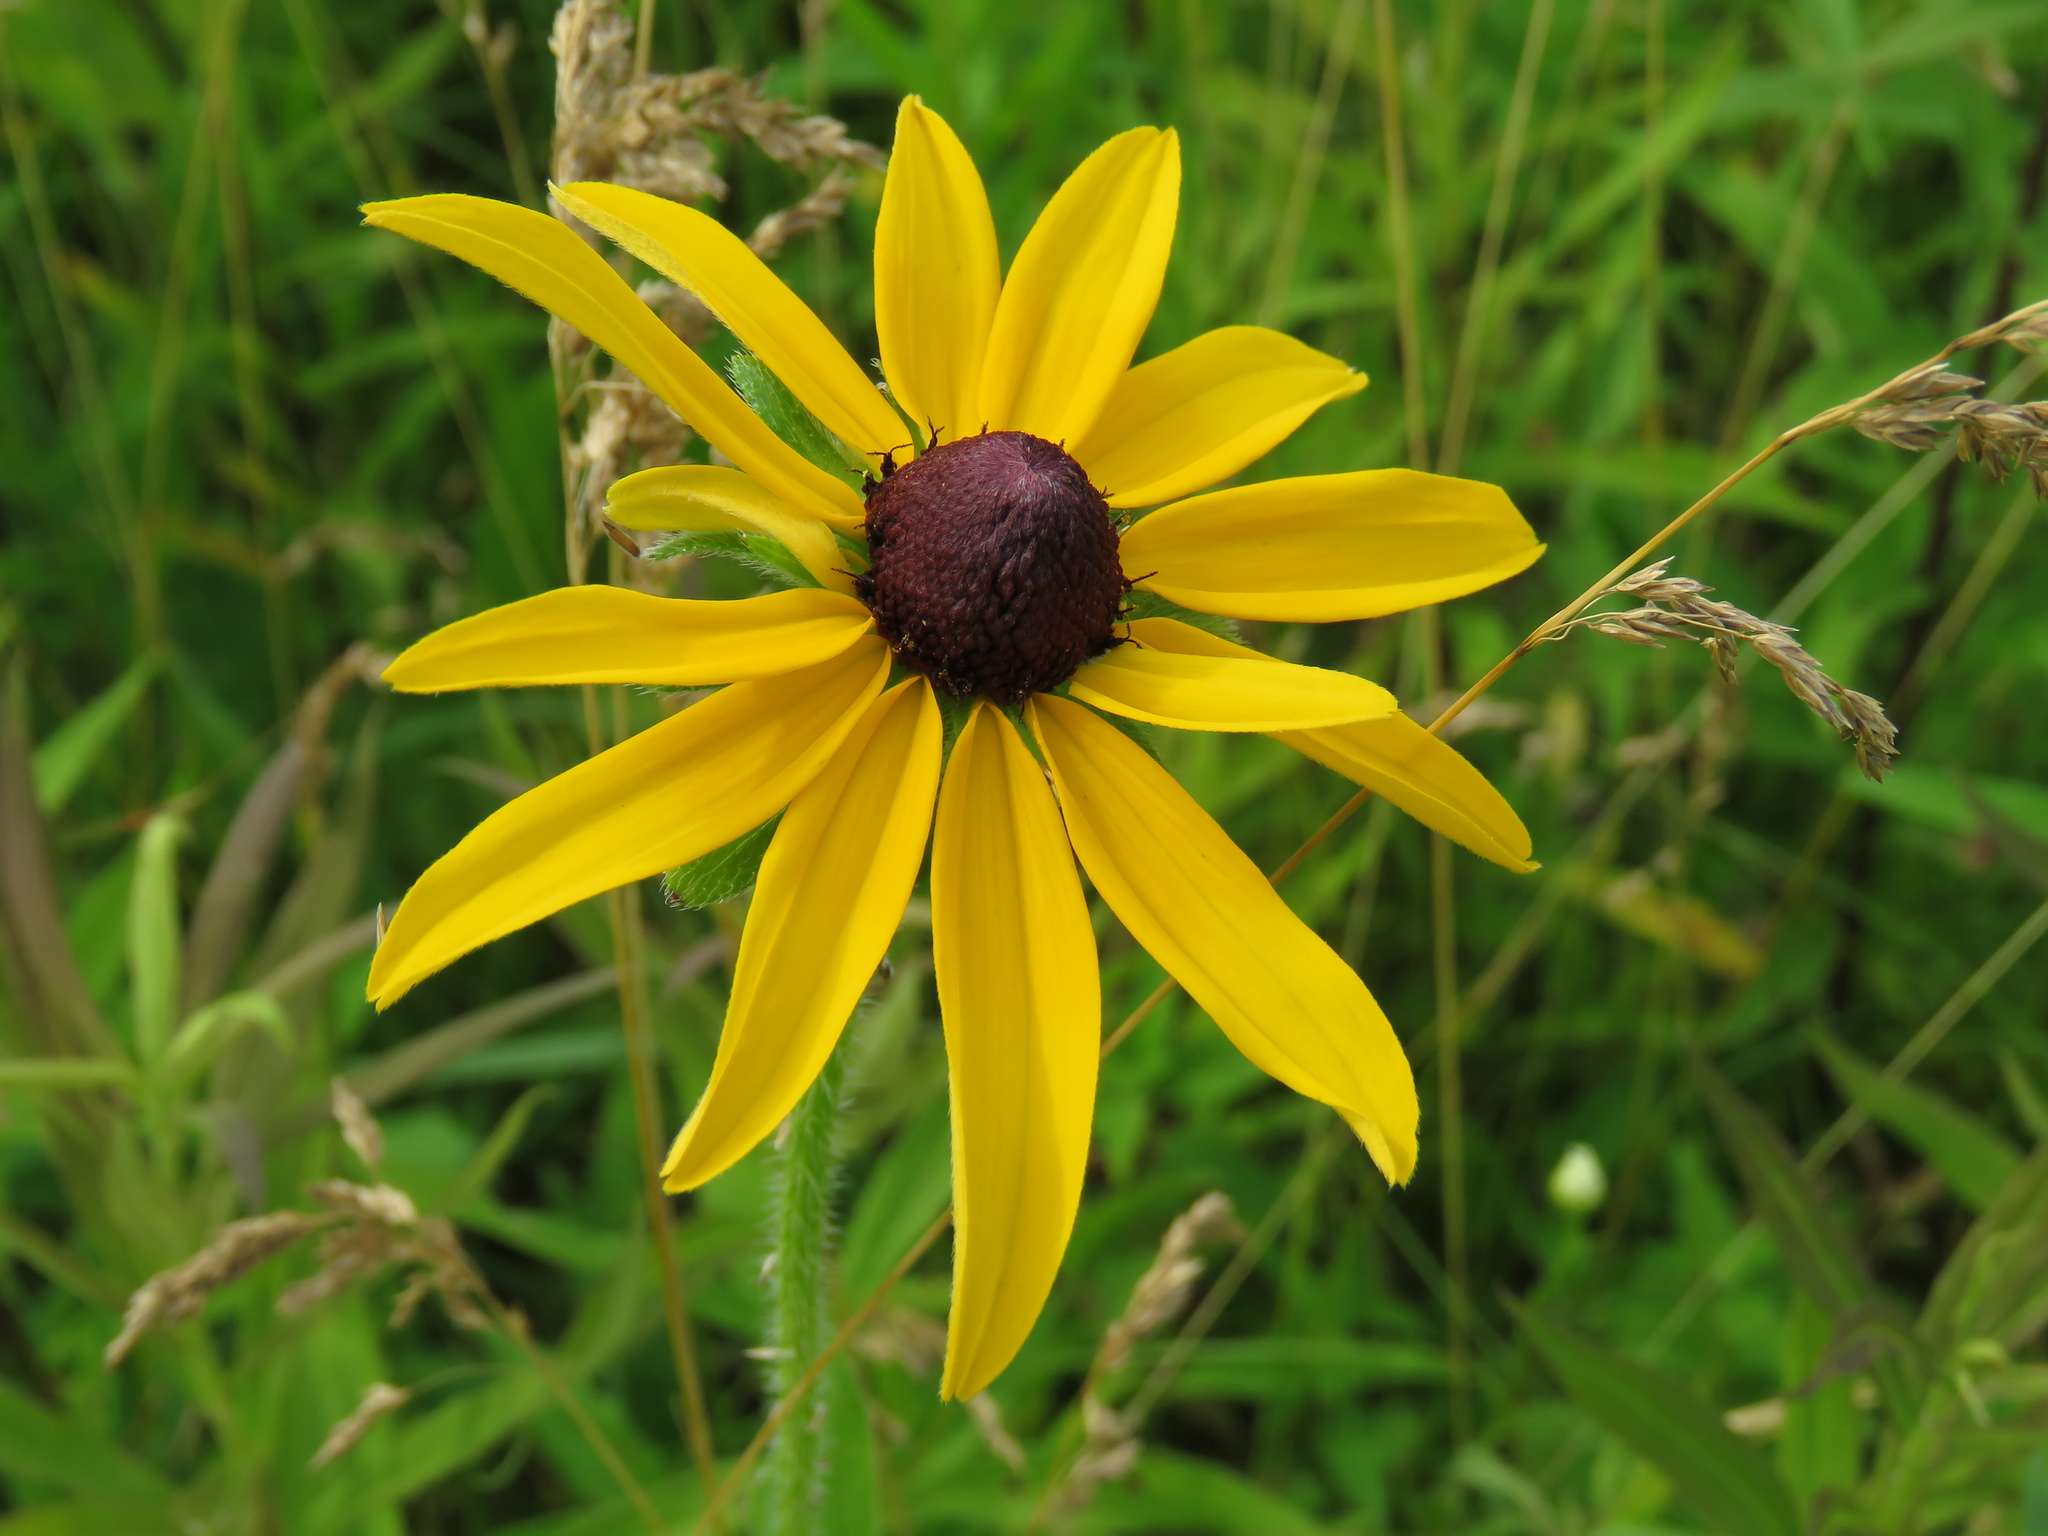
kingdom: Plantae
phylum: Tracheophyta
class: Magnoliopsida
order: Asterales
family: Asteraceae
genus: Rudbeckia
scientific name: Rudbeckia hirta
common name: Black-eyed-susan
